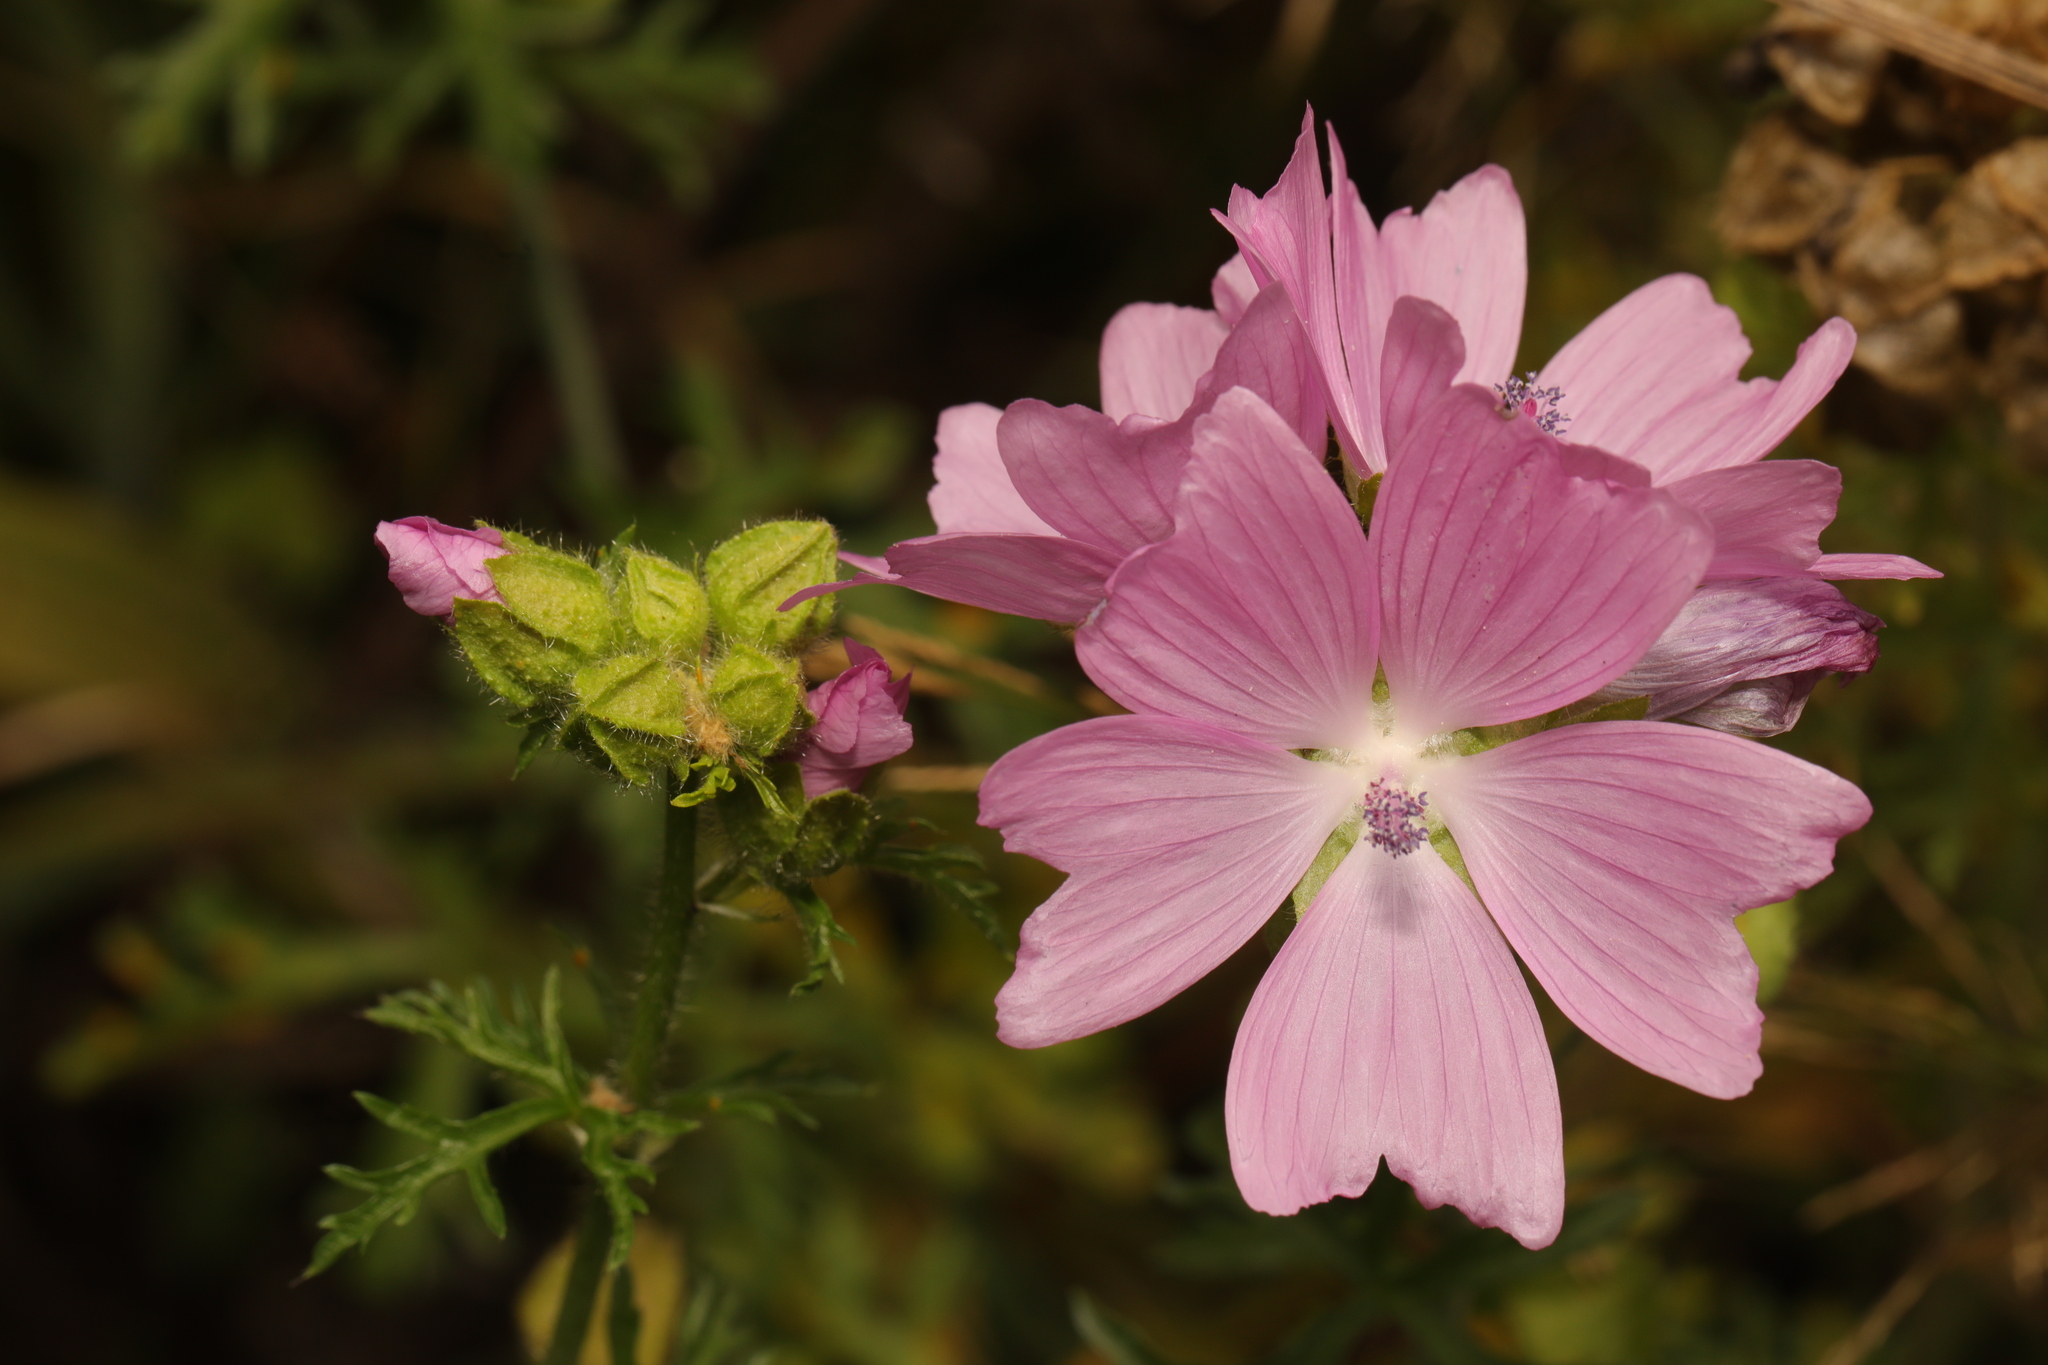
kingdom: Plantae
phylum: Tracheophyta
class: Magnoliopsida
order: Malvales
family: Malvaceae
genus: Malva
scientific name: Malva moschata
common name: Musk mallow
